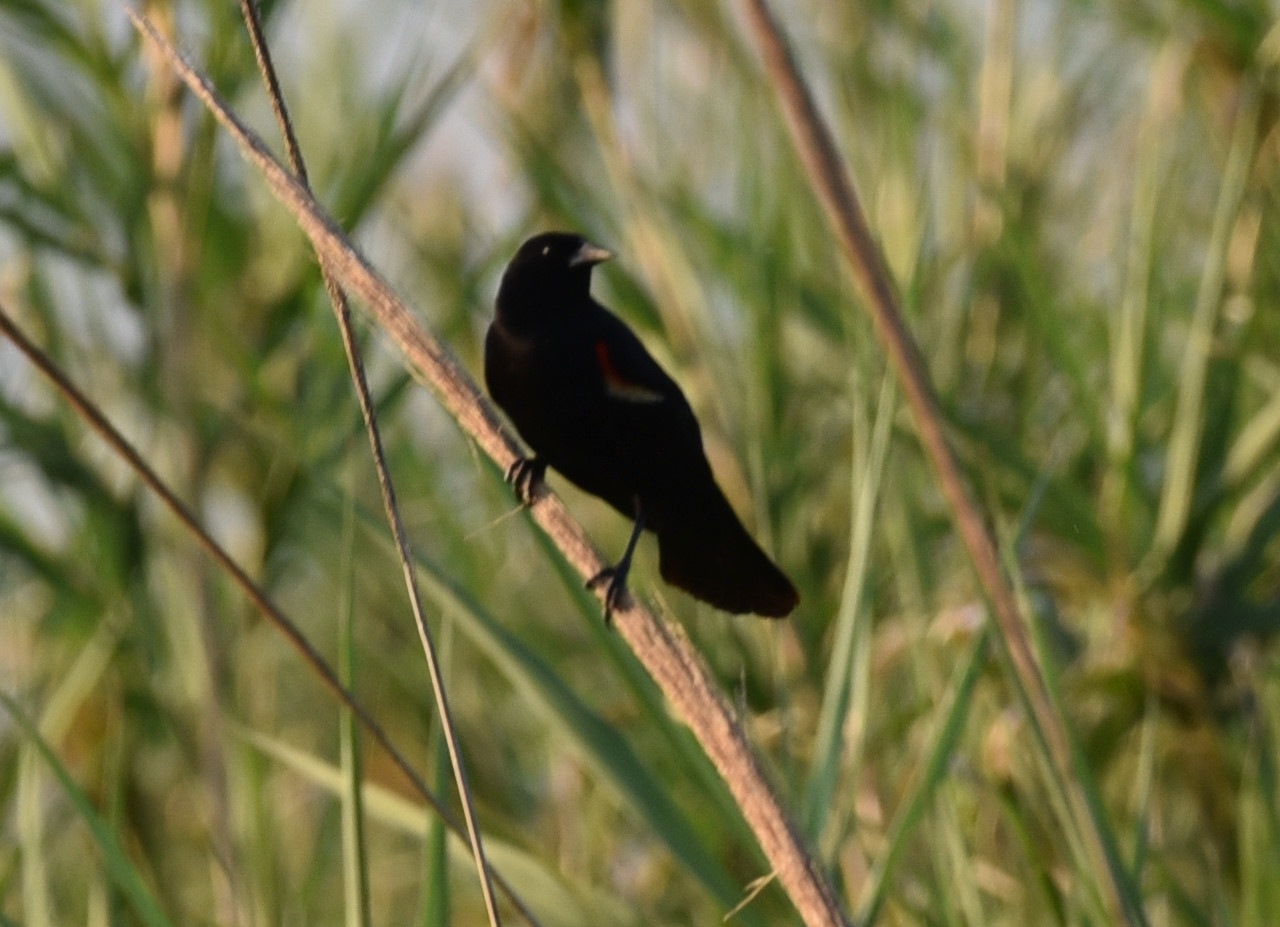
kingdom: Animalia
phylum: Chordata
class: Aves
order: Passeriformes
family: Icteridae
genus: Agelaius
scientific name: Agelaius phoeniceus
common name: Red-winged blackbird
